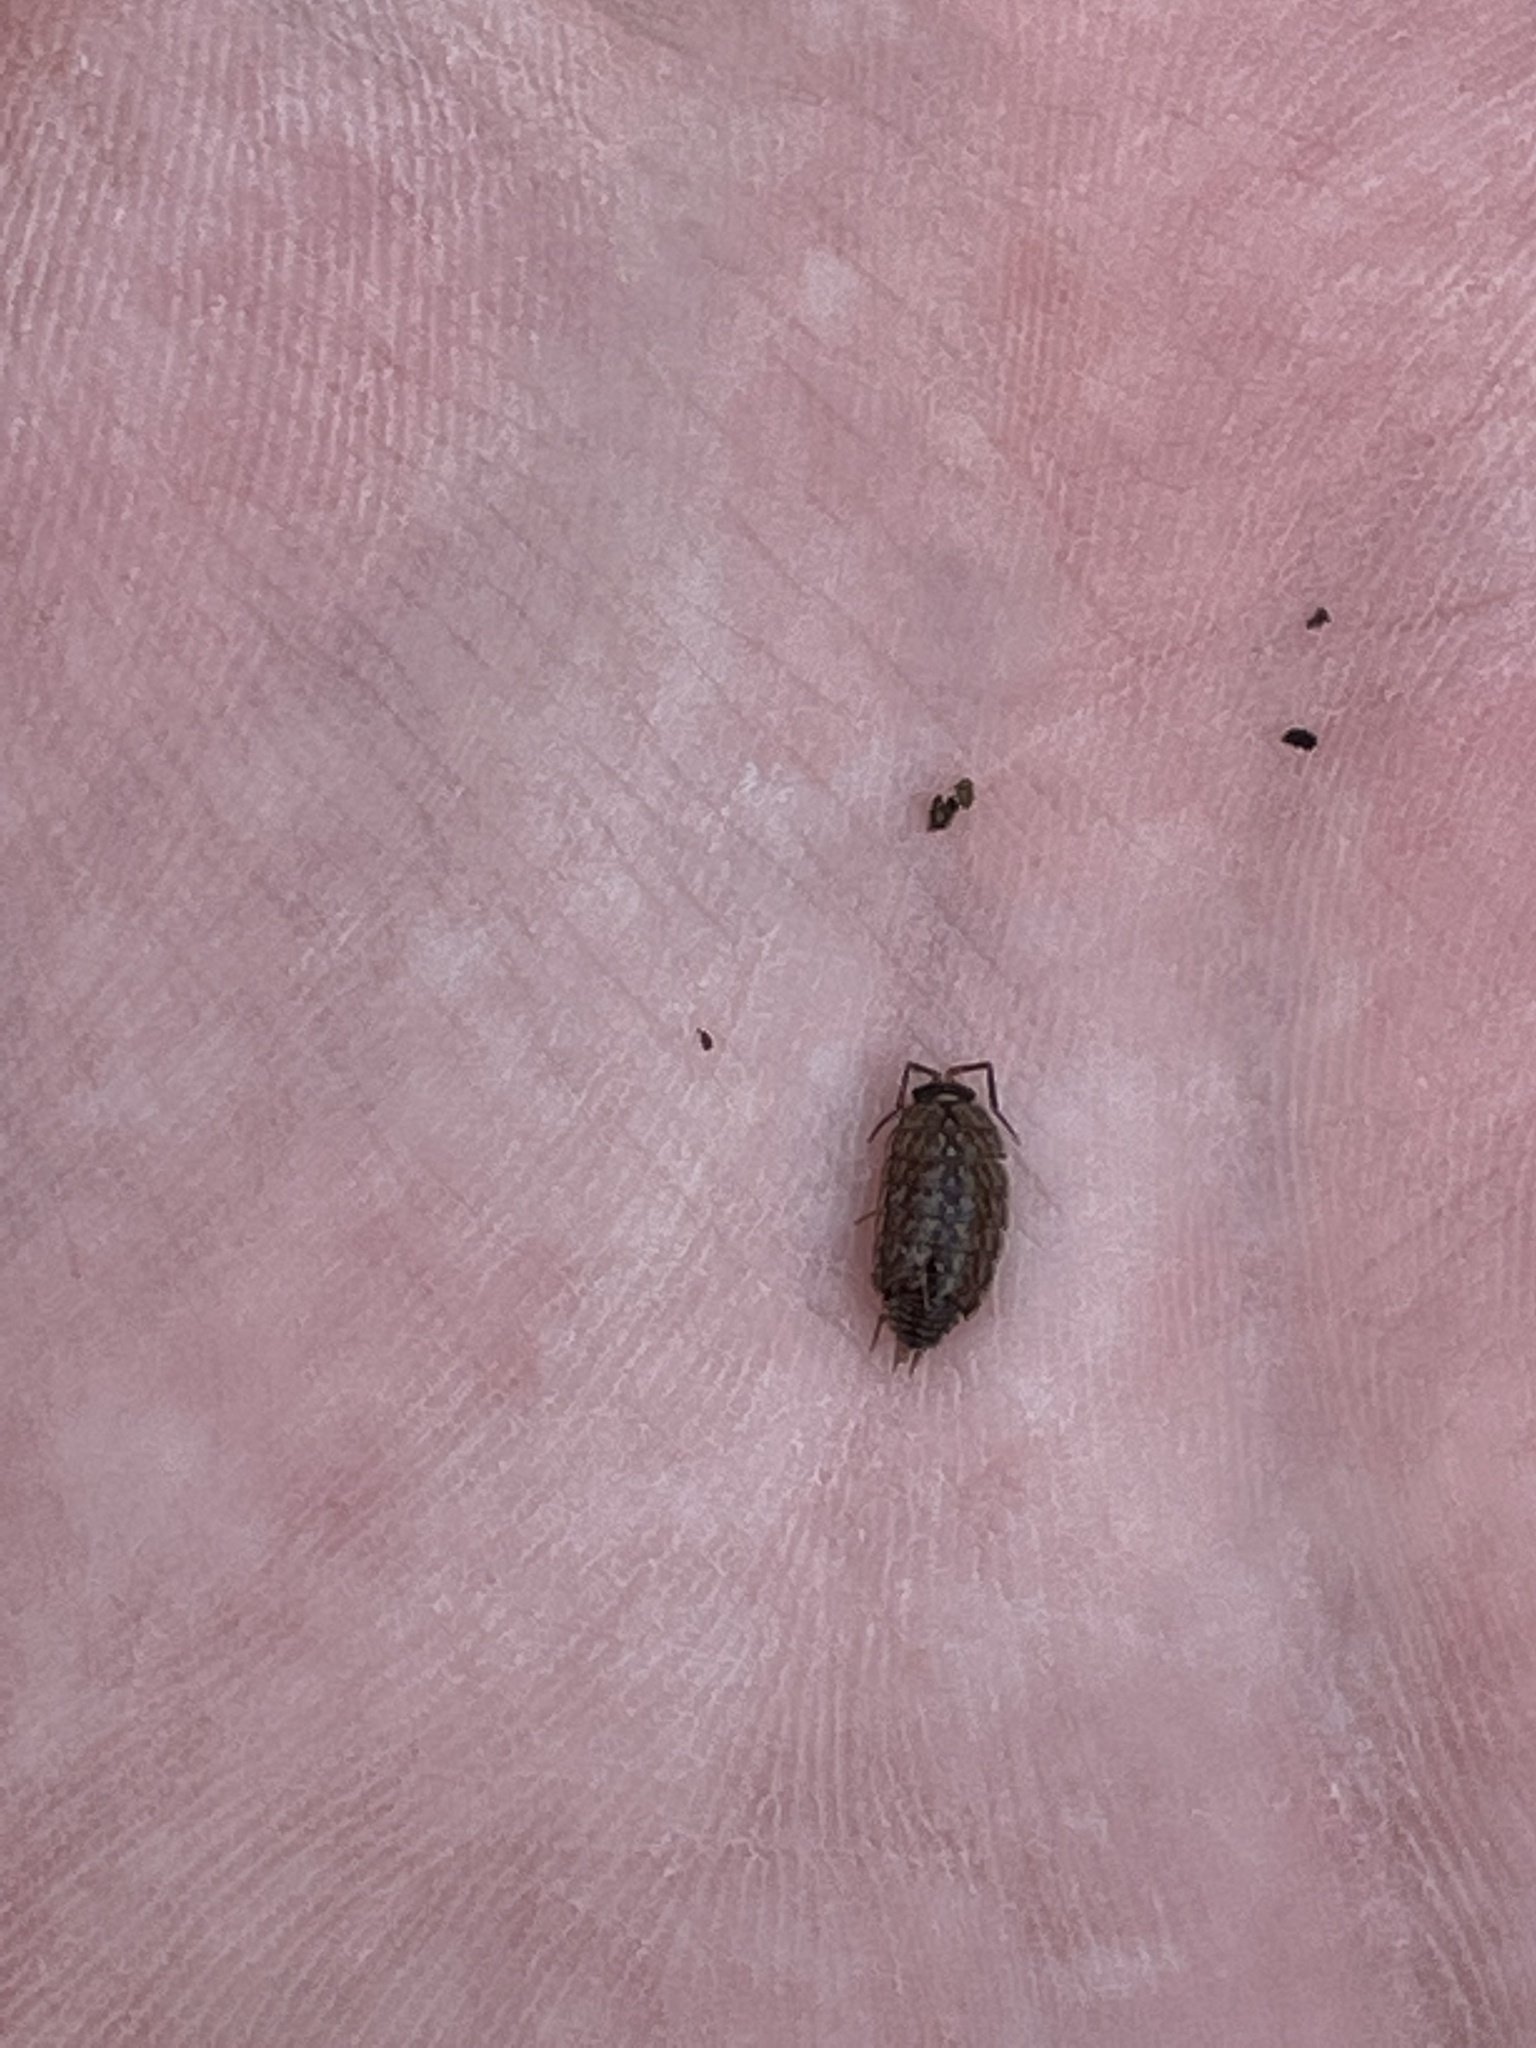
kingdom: Animalia
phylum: Arthropoda
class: Malacostraca
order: Isopoda
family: Philosciidae
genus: Philoscia
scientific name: Philoscia muscorum
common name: Common striped woodlouse
